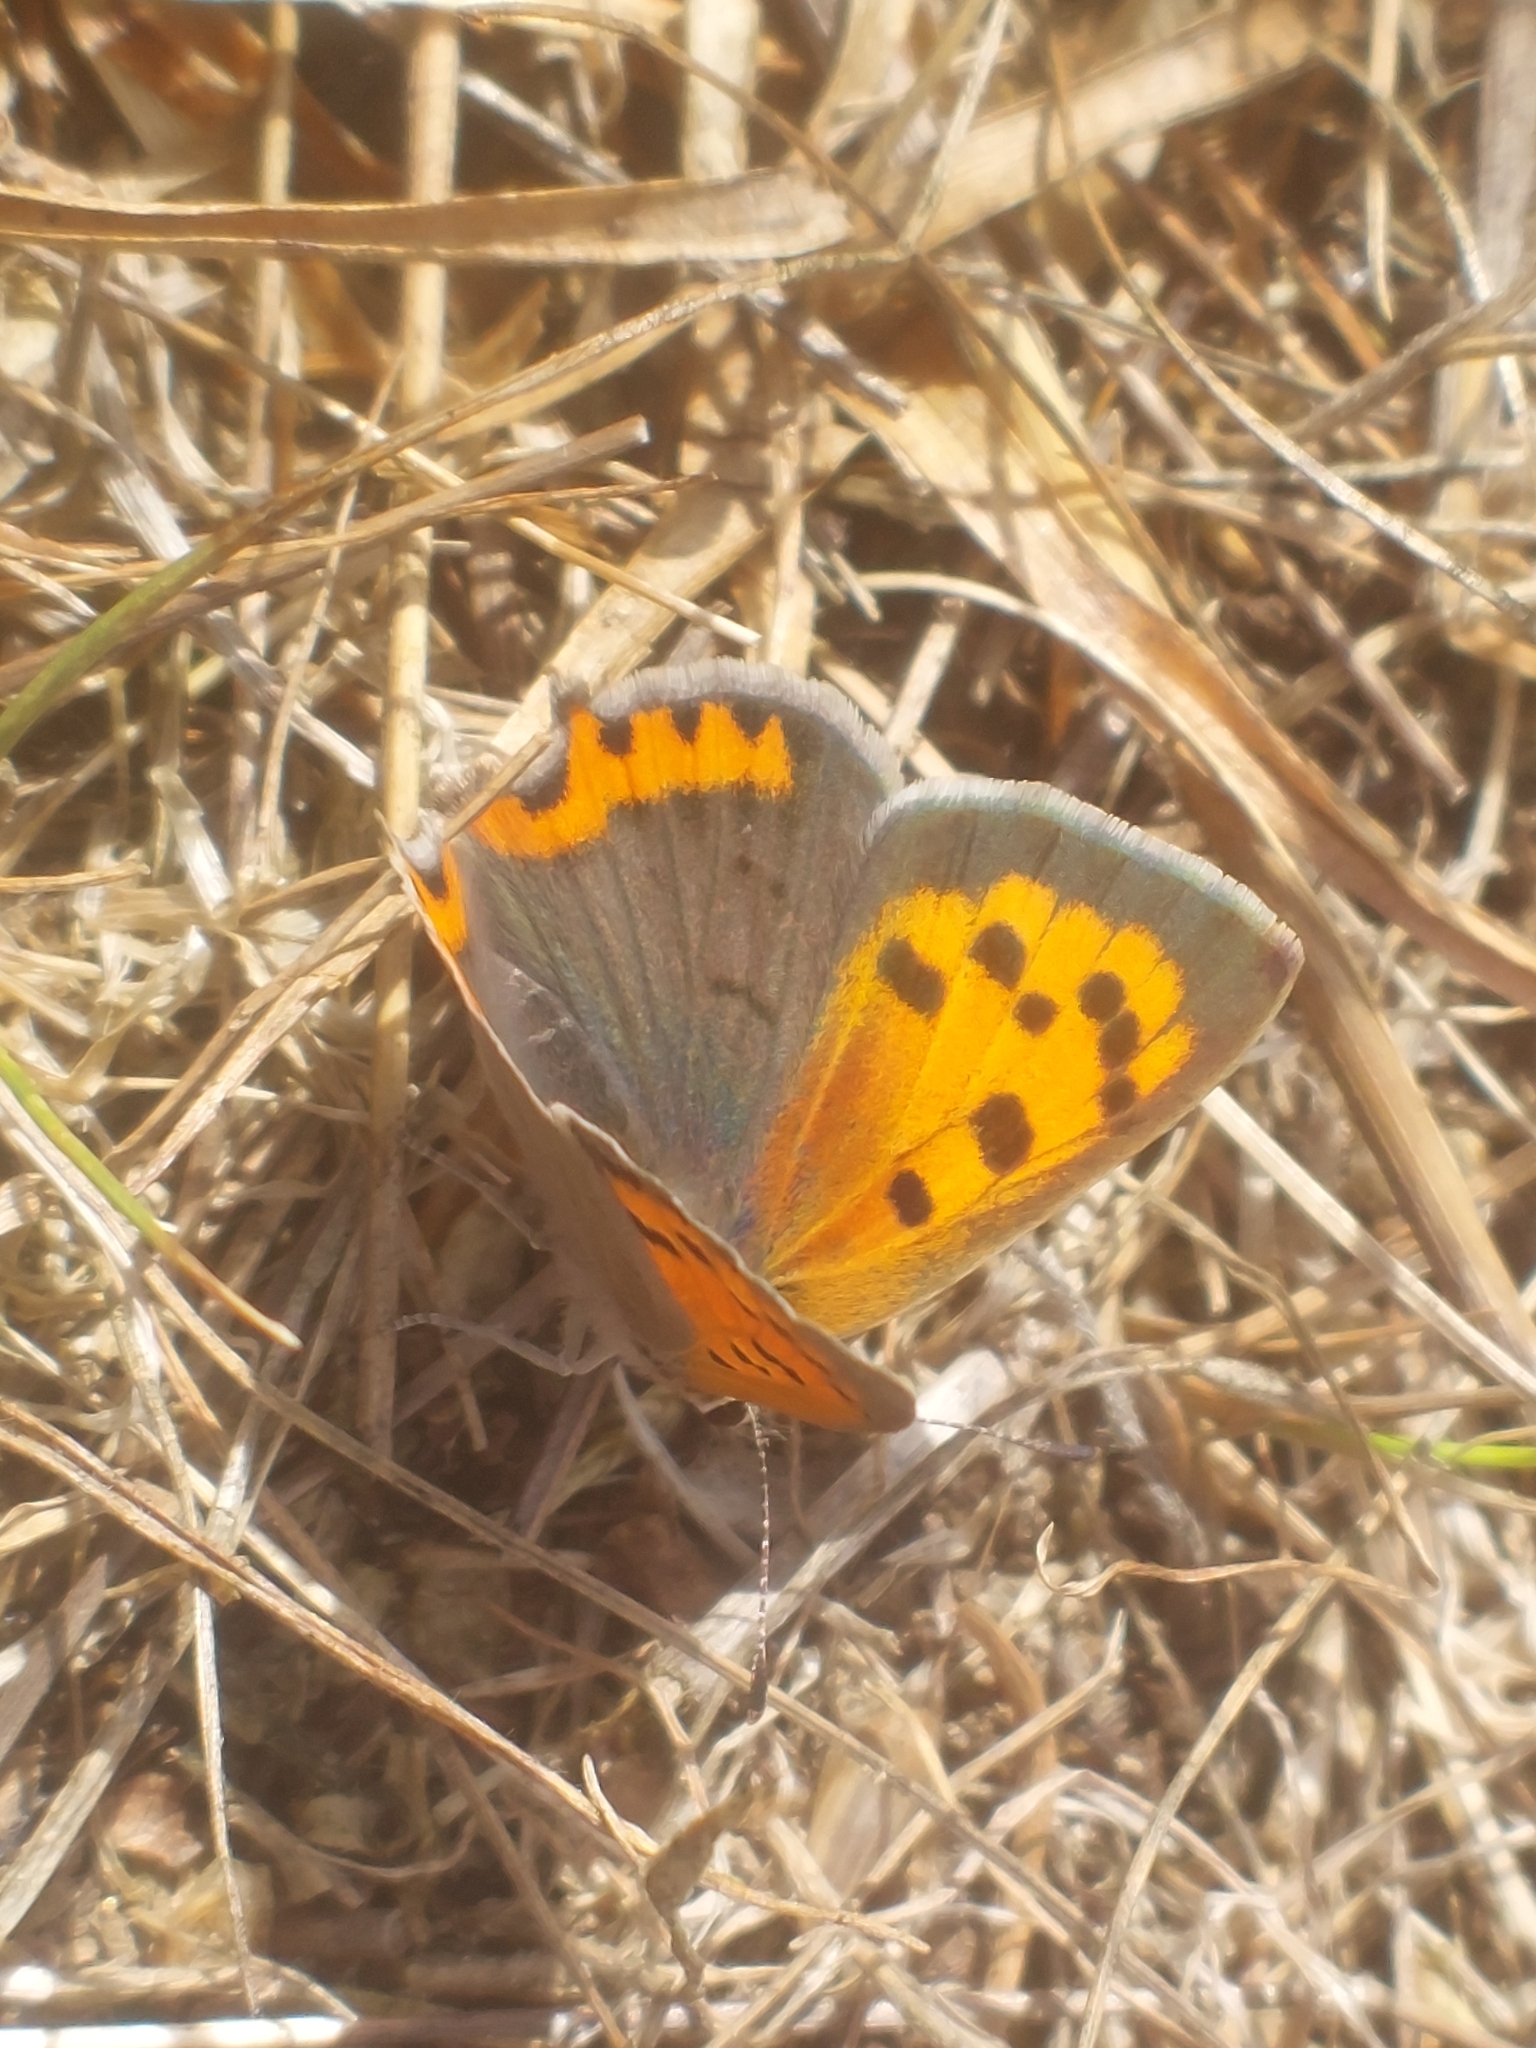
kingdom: Animalia
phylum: Arthropoda
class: Insecta
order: Lepidoptera
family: Lycaenidae
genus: Lycaena
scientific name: Lycaena phlaeas
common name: Small copper
